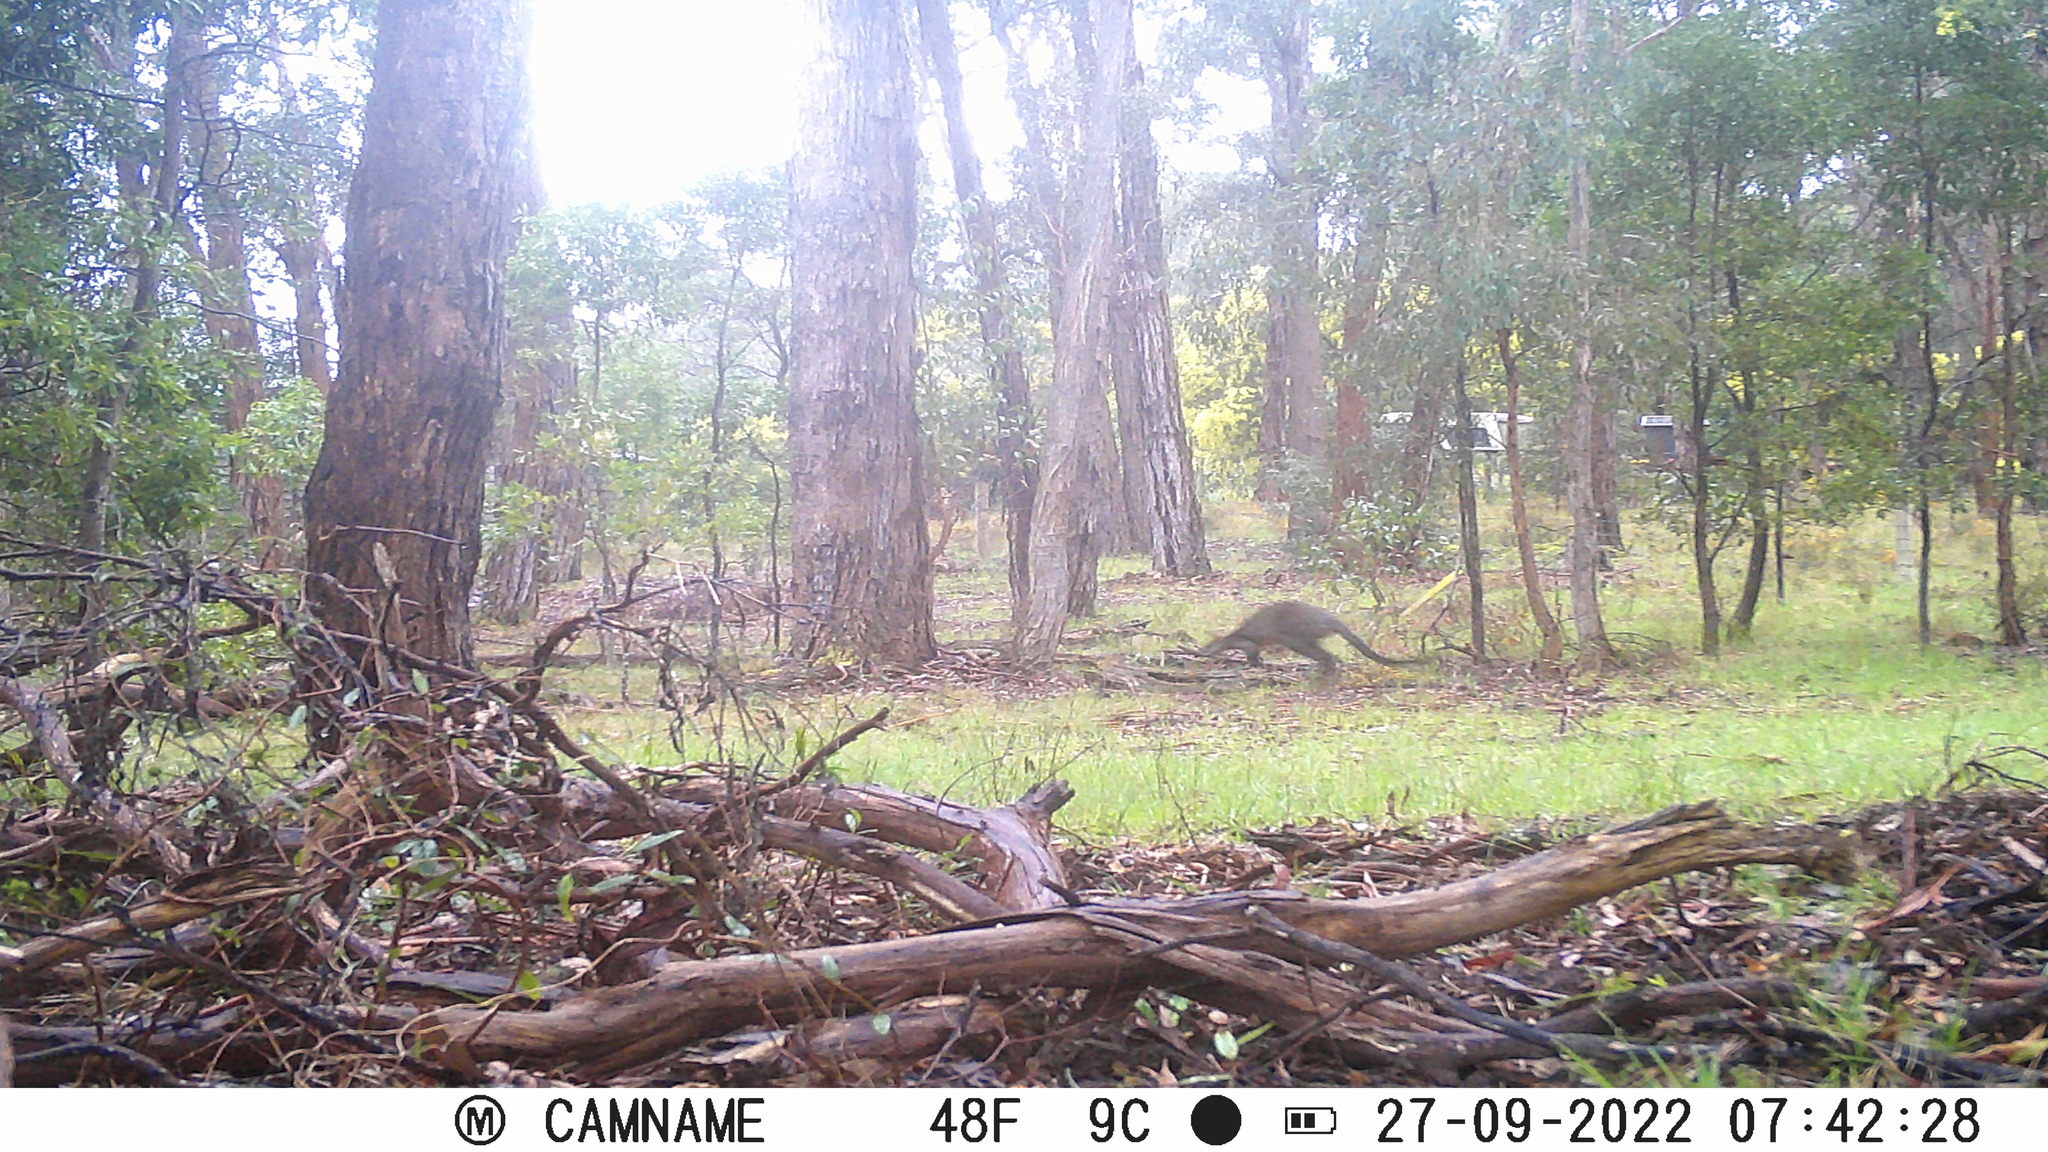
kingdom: Animalia
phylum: Chordata
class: Mammalia
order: Diprotodontia
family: Macropodidae
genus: Wallabia
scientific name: Wallabia bicolor
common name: Swamp wallaby
